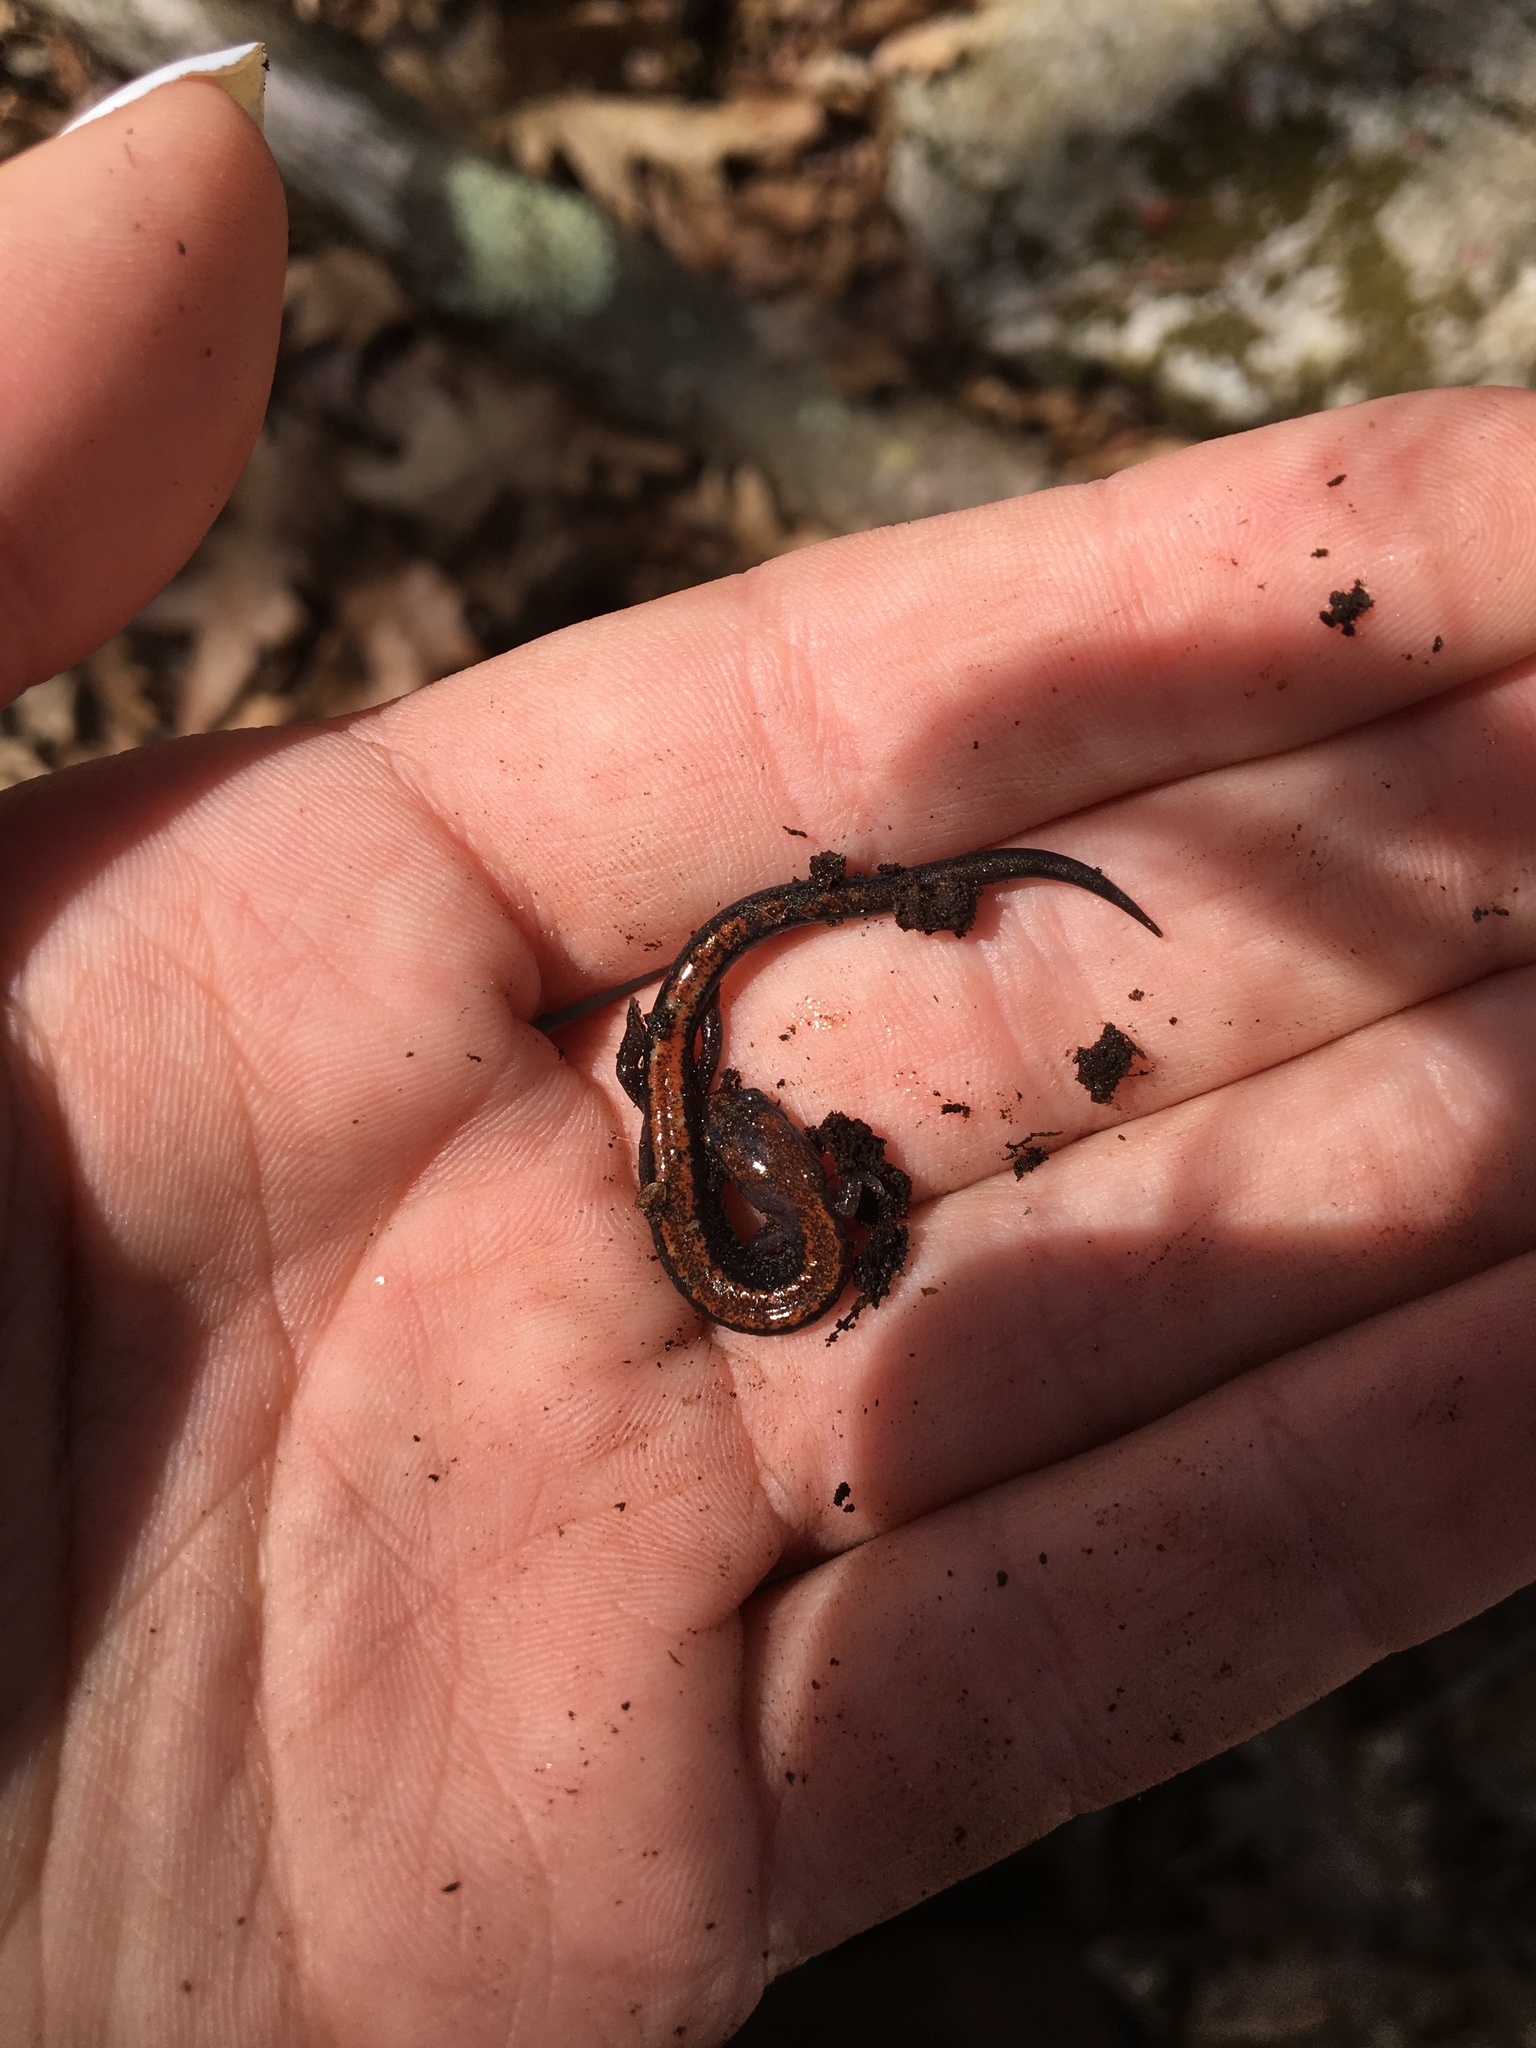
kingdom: Animalia
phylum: Chordata
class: Amphibia
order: Caudata
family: Plethodontidae
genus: Plethodon
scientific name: Plethodon cinereus
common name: Redback salamander
